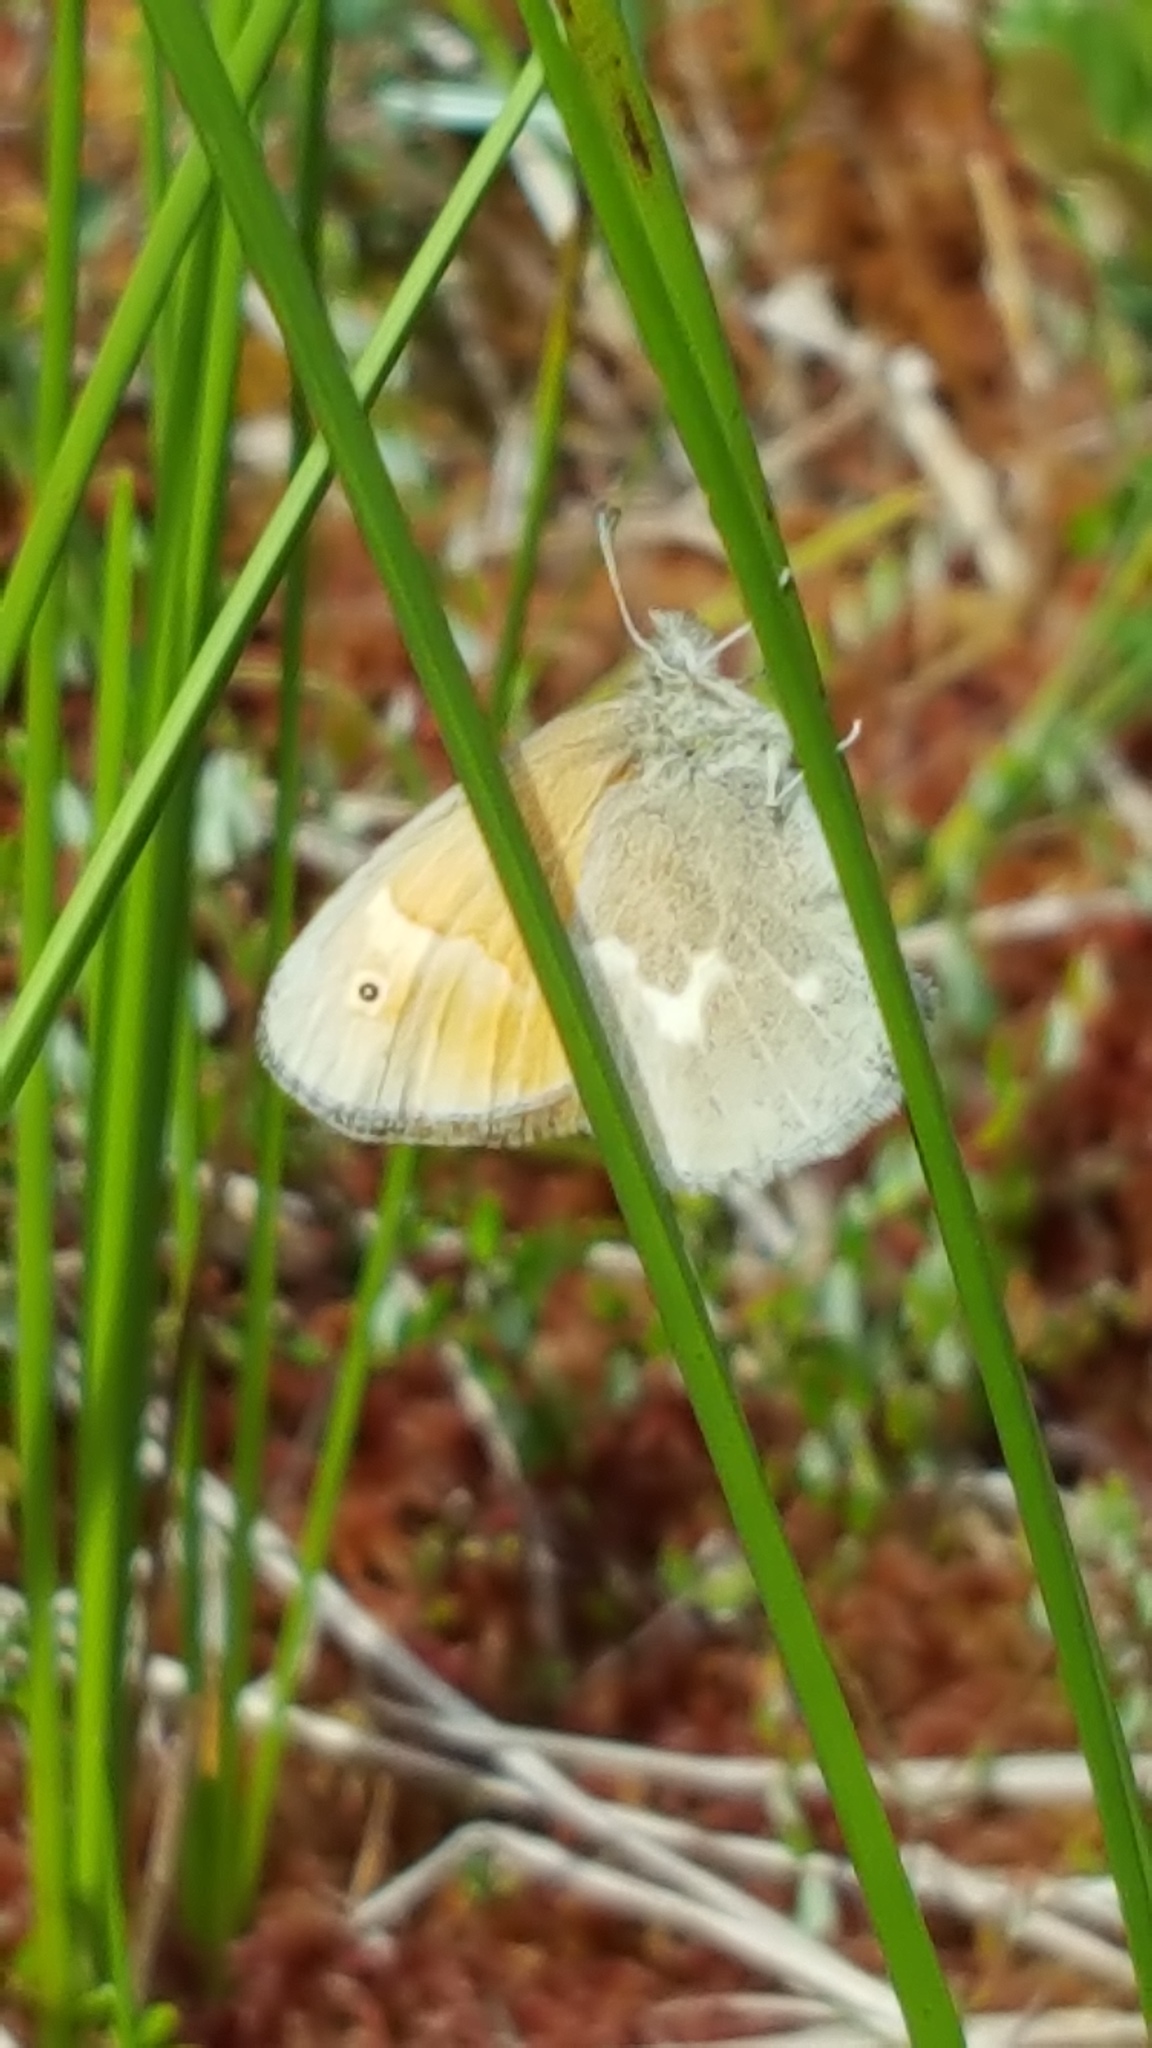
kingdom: Animalia
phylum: Arthropoda
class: Insecta
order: Lepidoptera
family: Nymphalidae
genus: Coenonympha
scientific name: Coenonympha california
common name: Common ringlet
